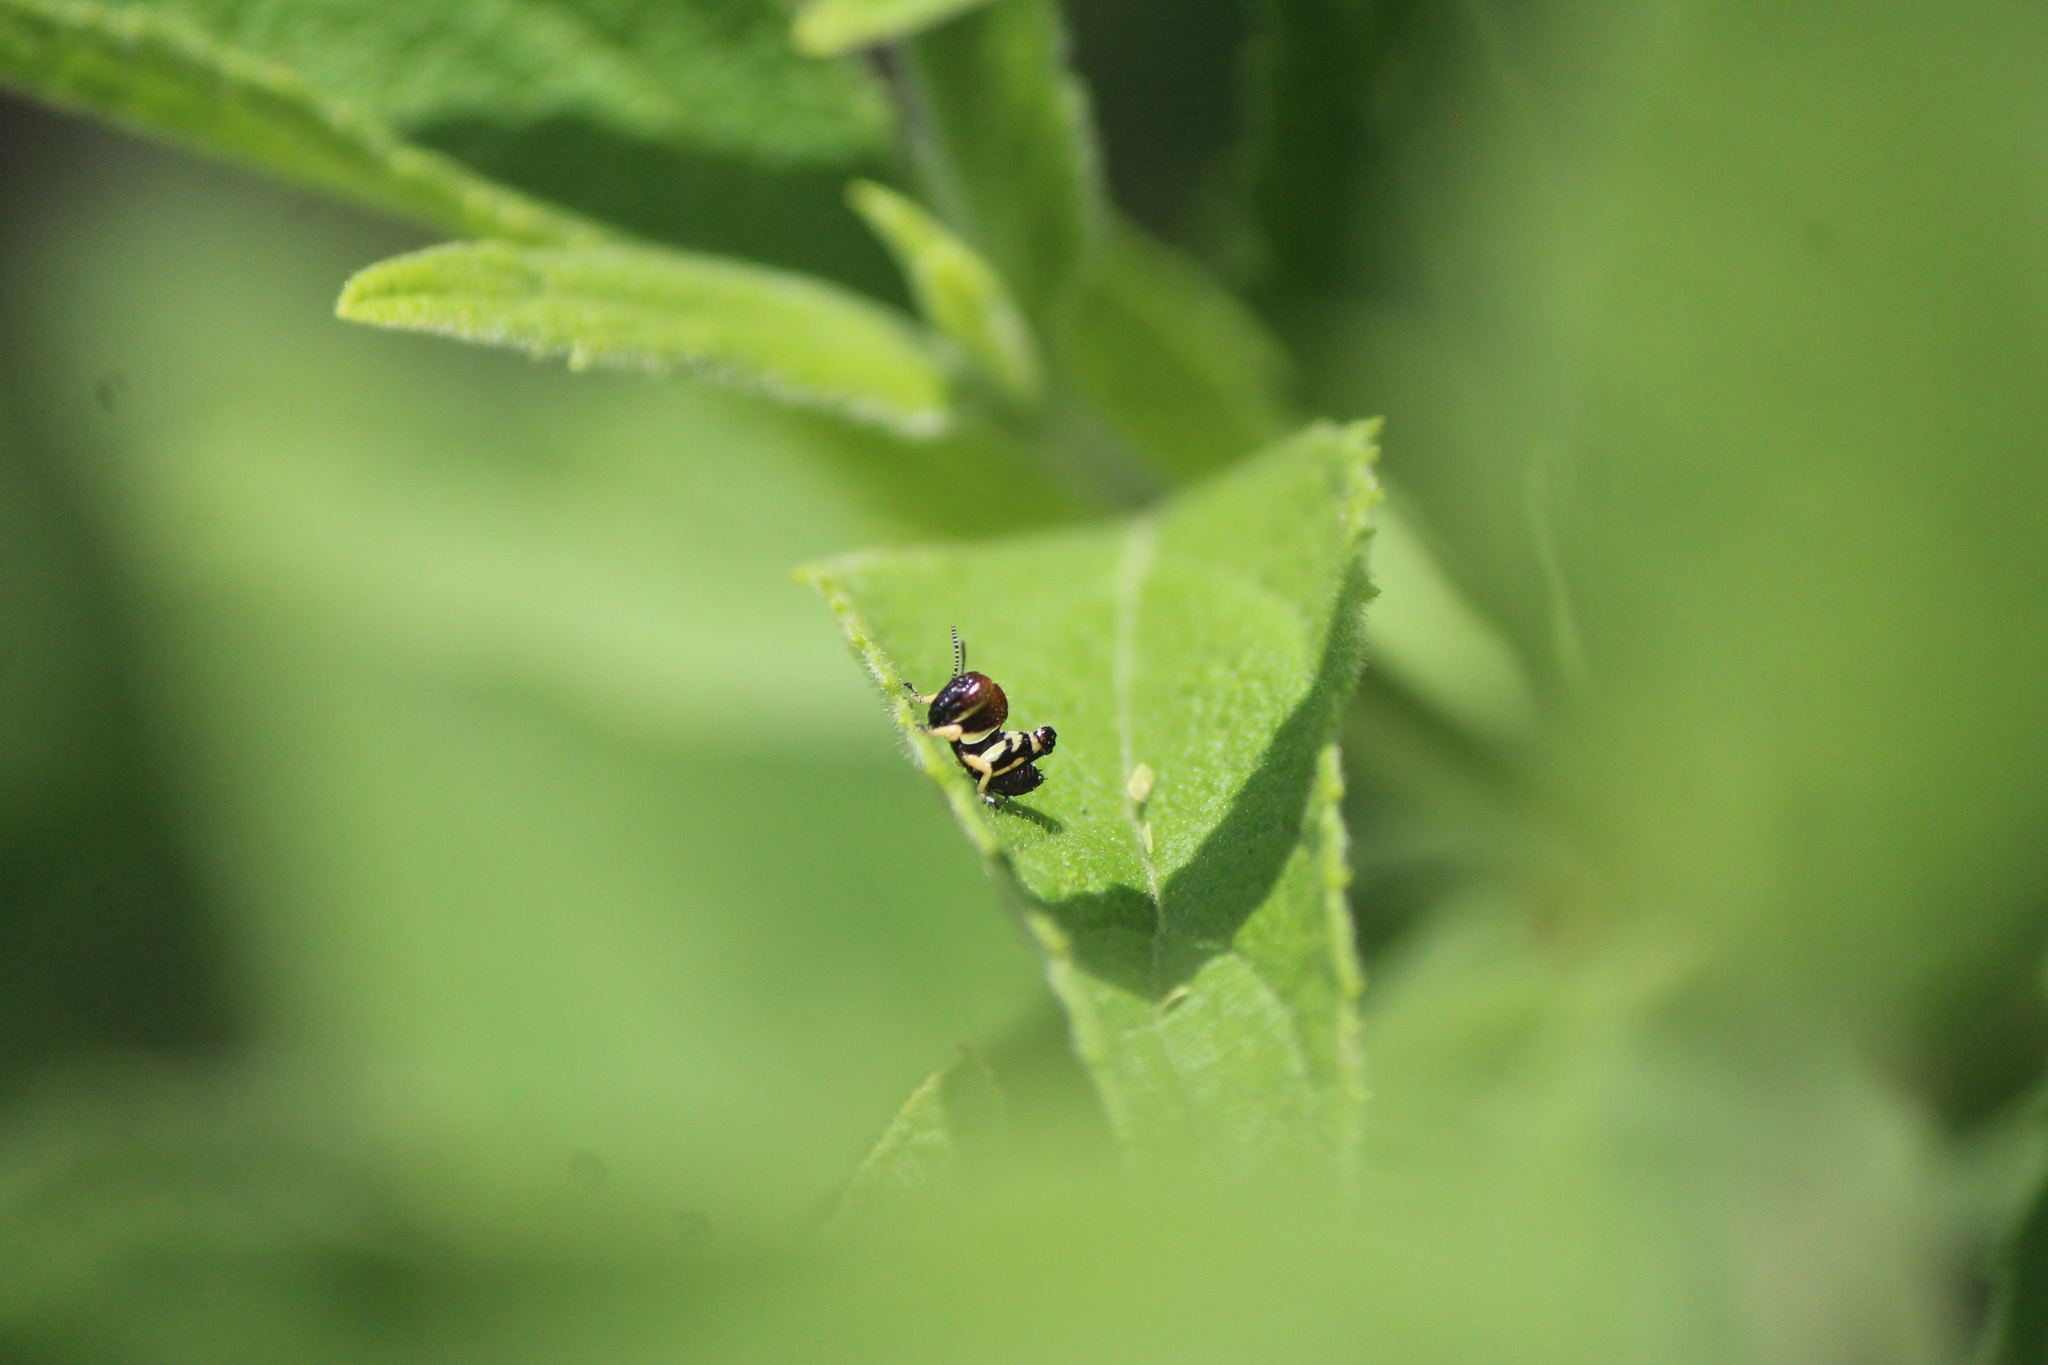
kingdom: Animalia
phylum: Arthropoda
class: Insecta
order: Orthoptera
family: Acrididae
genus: Aidemona
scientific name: Aidemona azteca
